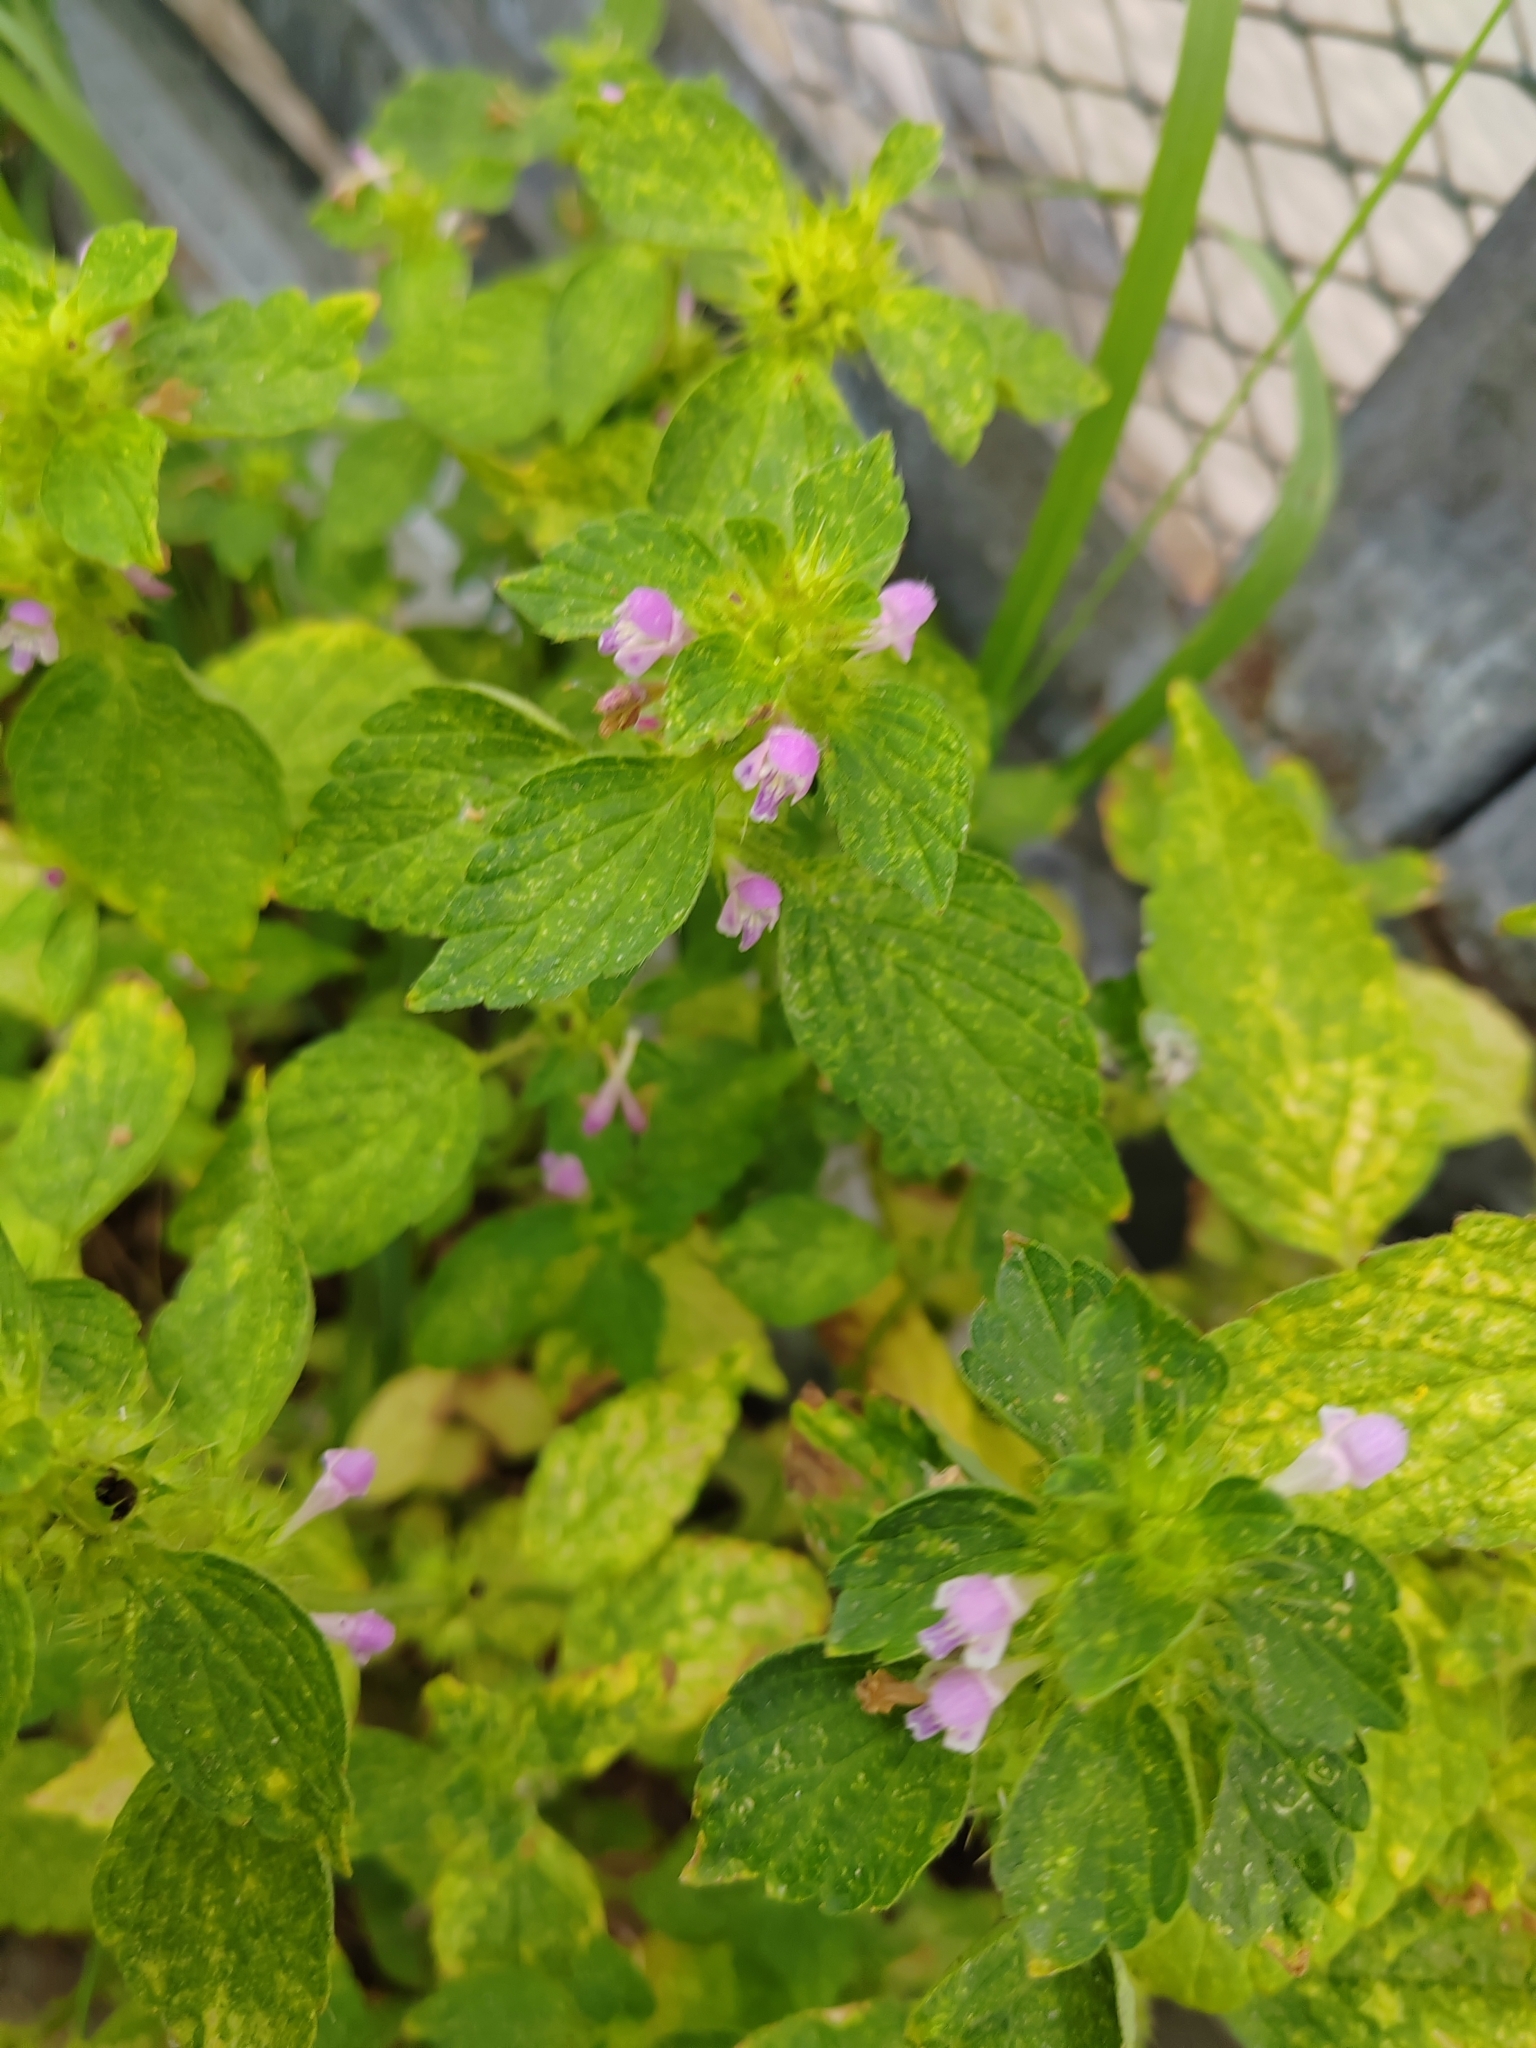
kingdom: Plantae
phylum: Tracheophyta
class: Magnoliopsida
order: Lamiales
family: Lamiaceae
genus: Galeopsis
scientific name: Galeopsis bifida
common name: Bifid hemp-nettle
